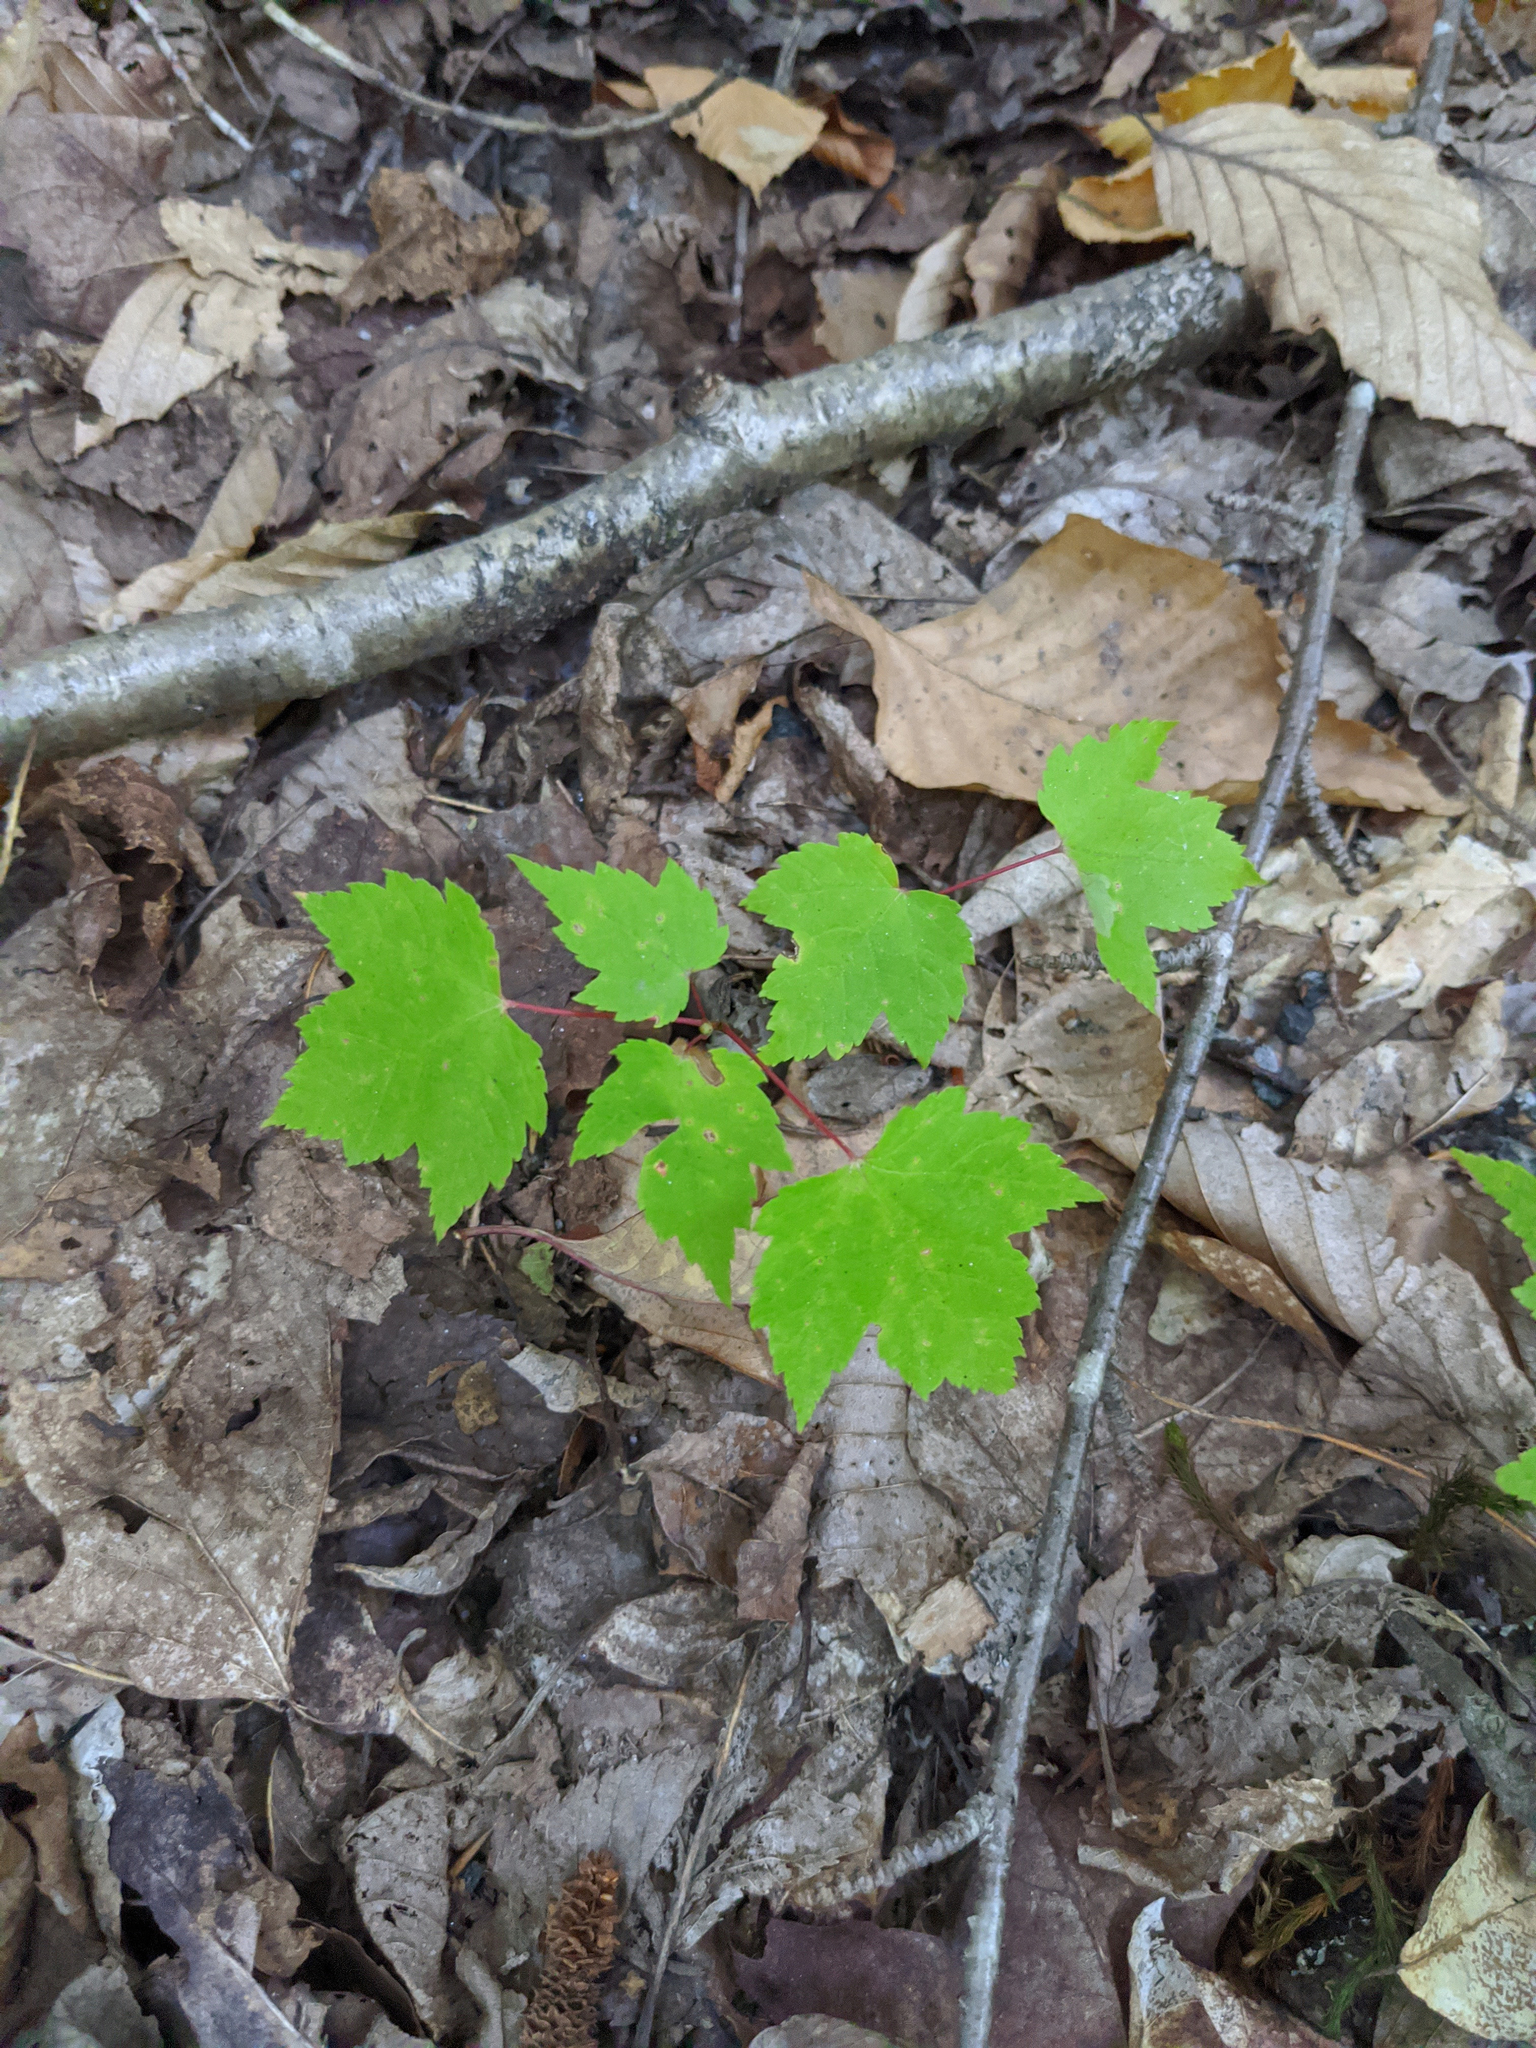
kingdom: Plantae
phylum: Tracheophyta
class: Magnoliopsida
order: Sapindales
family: Sapindaceae
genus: Acer
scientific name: Acer rubrum
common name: Red maple
